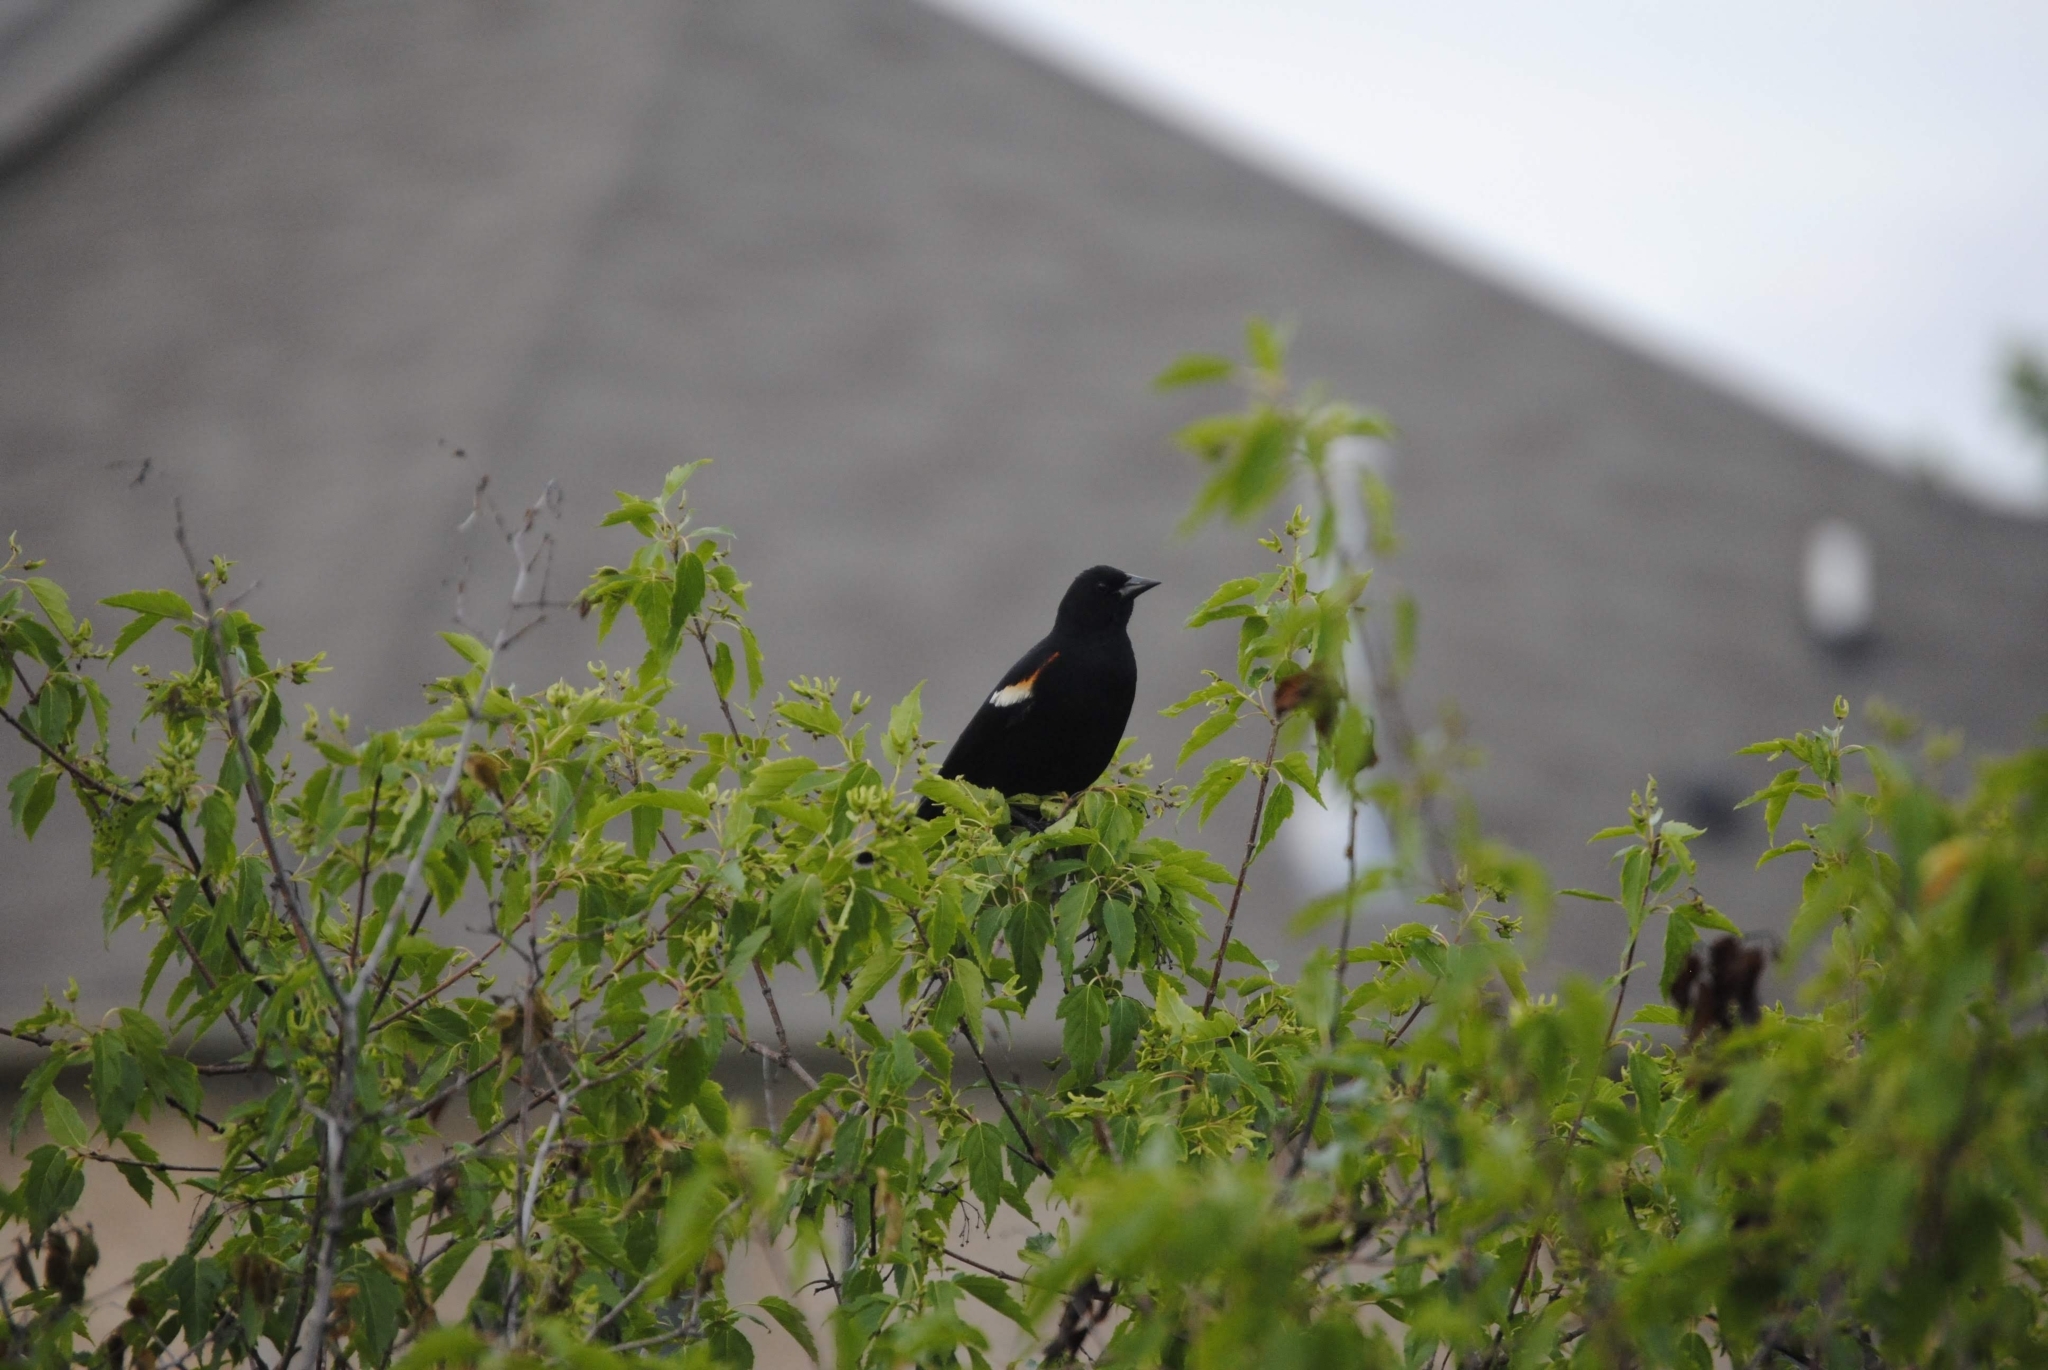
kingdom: Animalia
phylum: Chordata
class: Aves
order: Passeriformes
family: Icteridae
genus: Agelaius
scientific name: Agelaius phoeniceus
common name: Red-winged blackbird
